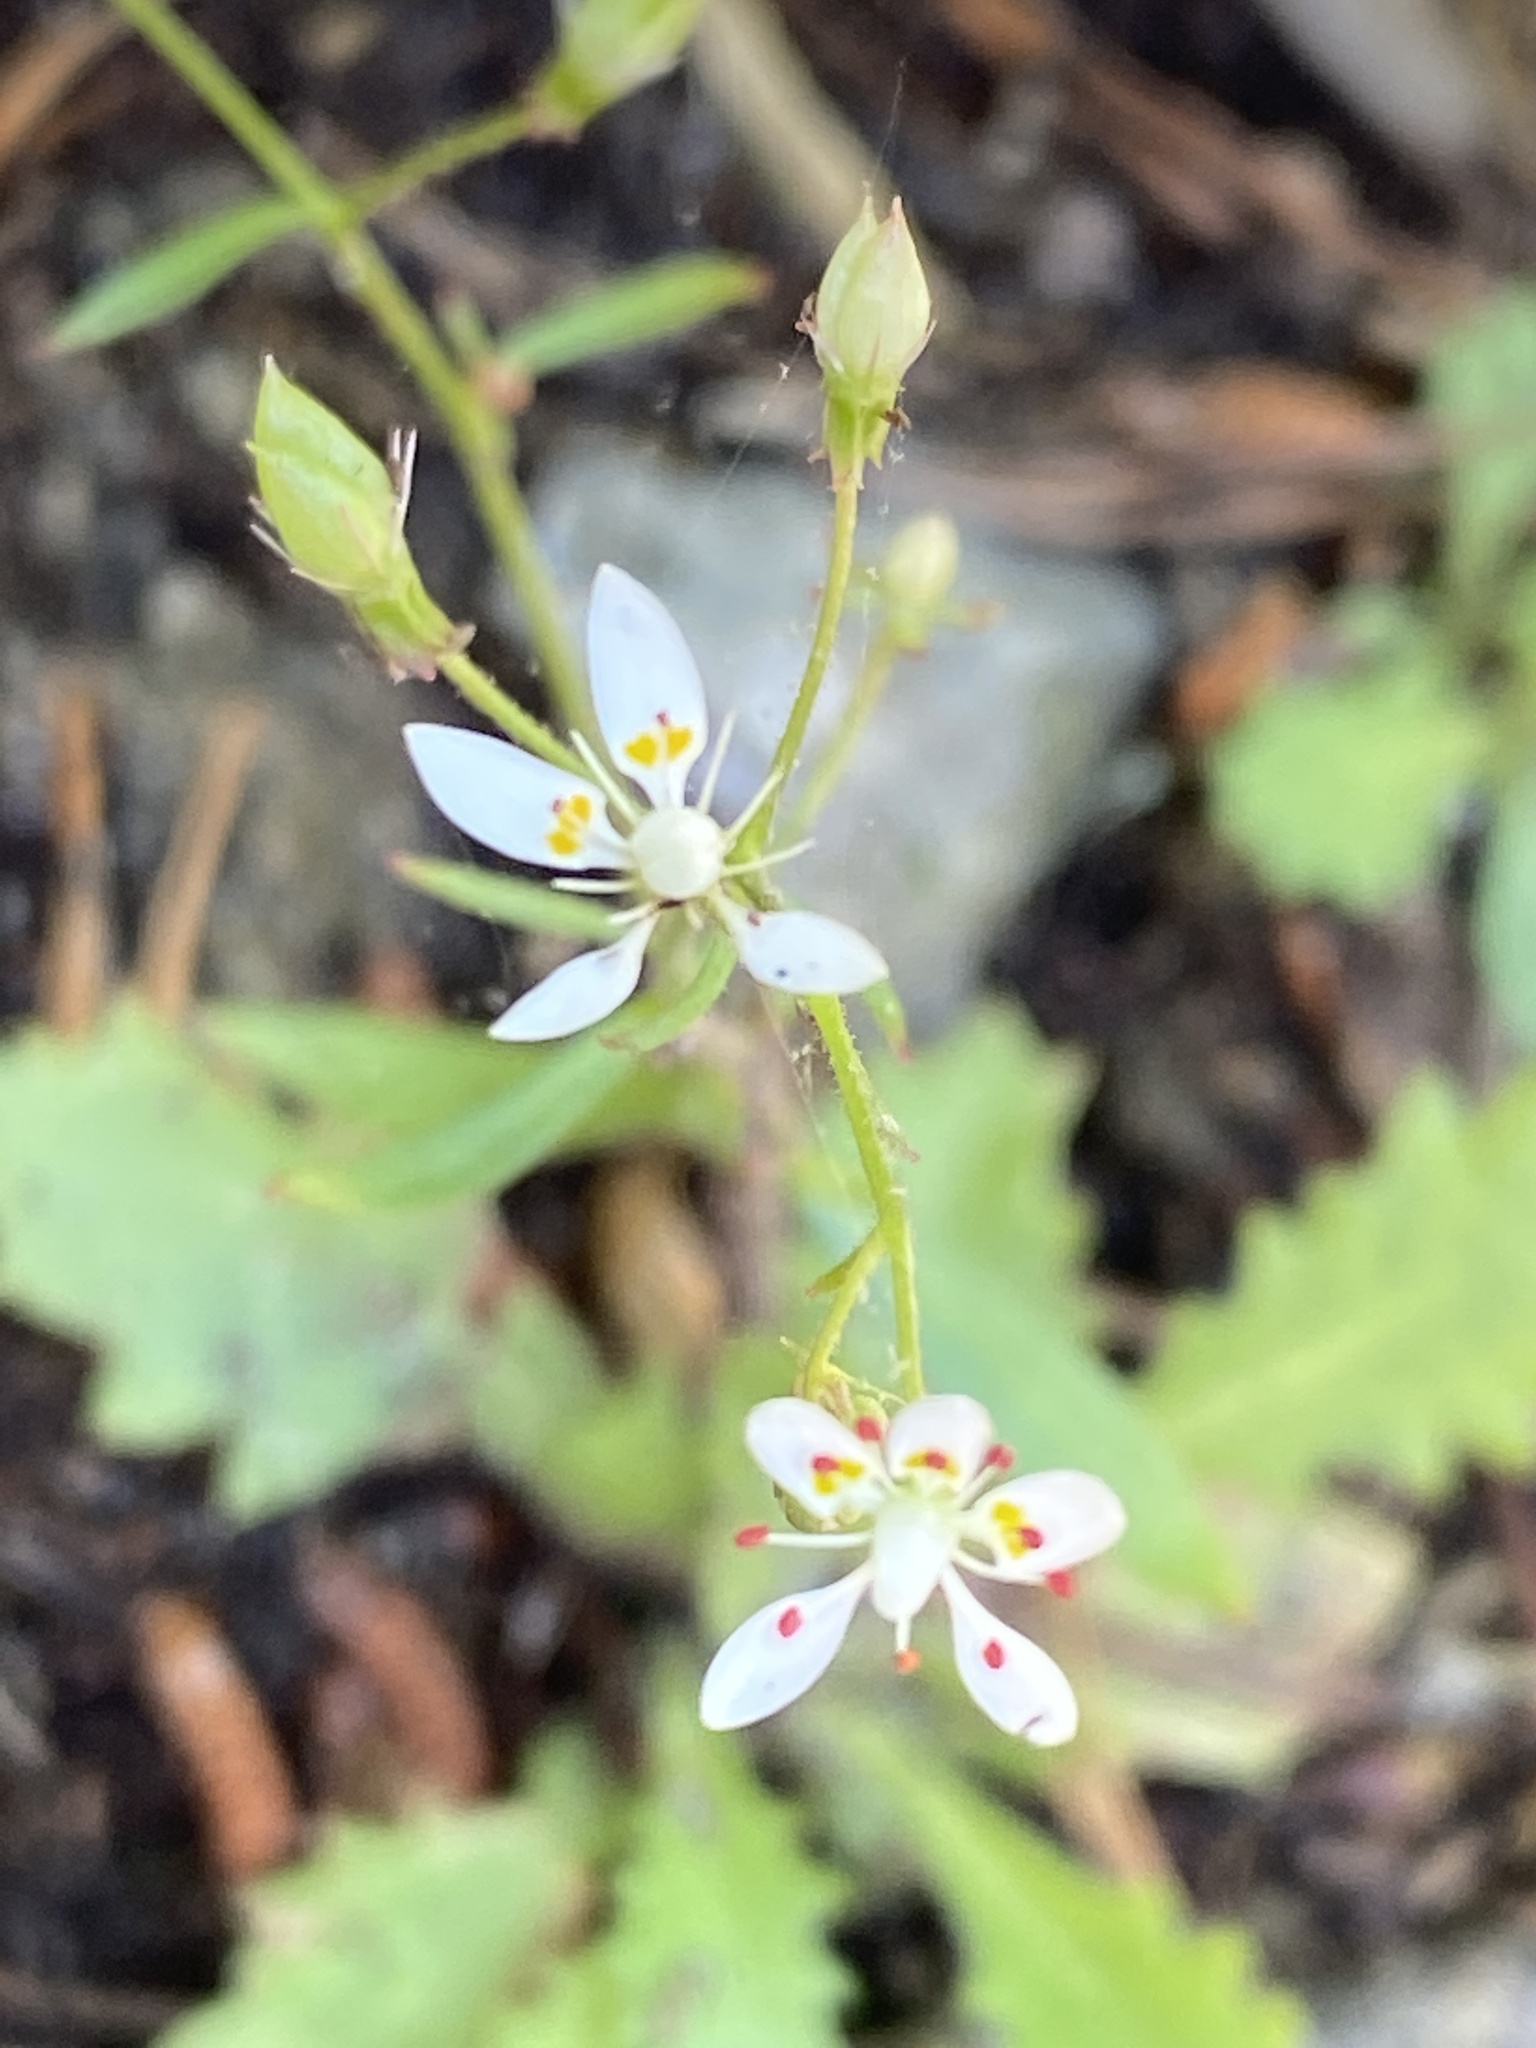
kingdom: Plantae
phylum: Tracheophyta
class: Magnoliopsida
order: Saxifragales
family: Saxifragaceae
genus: Micranthes
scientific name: Micranthes petiolaris
